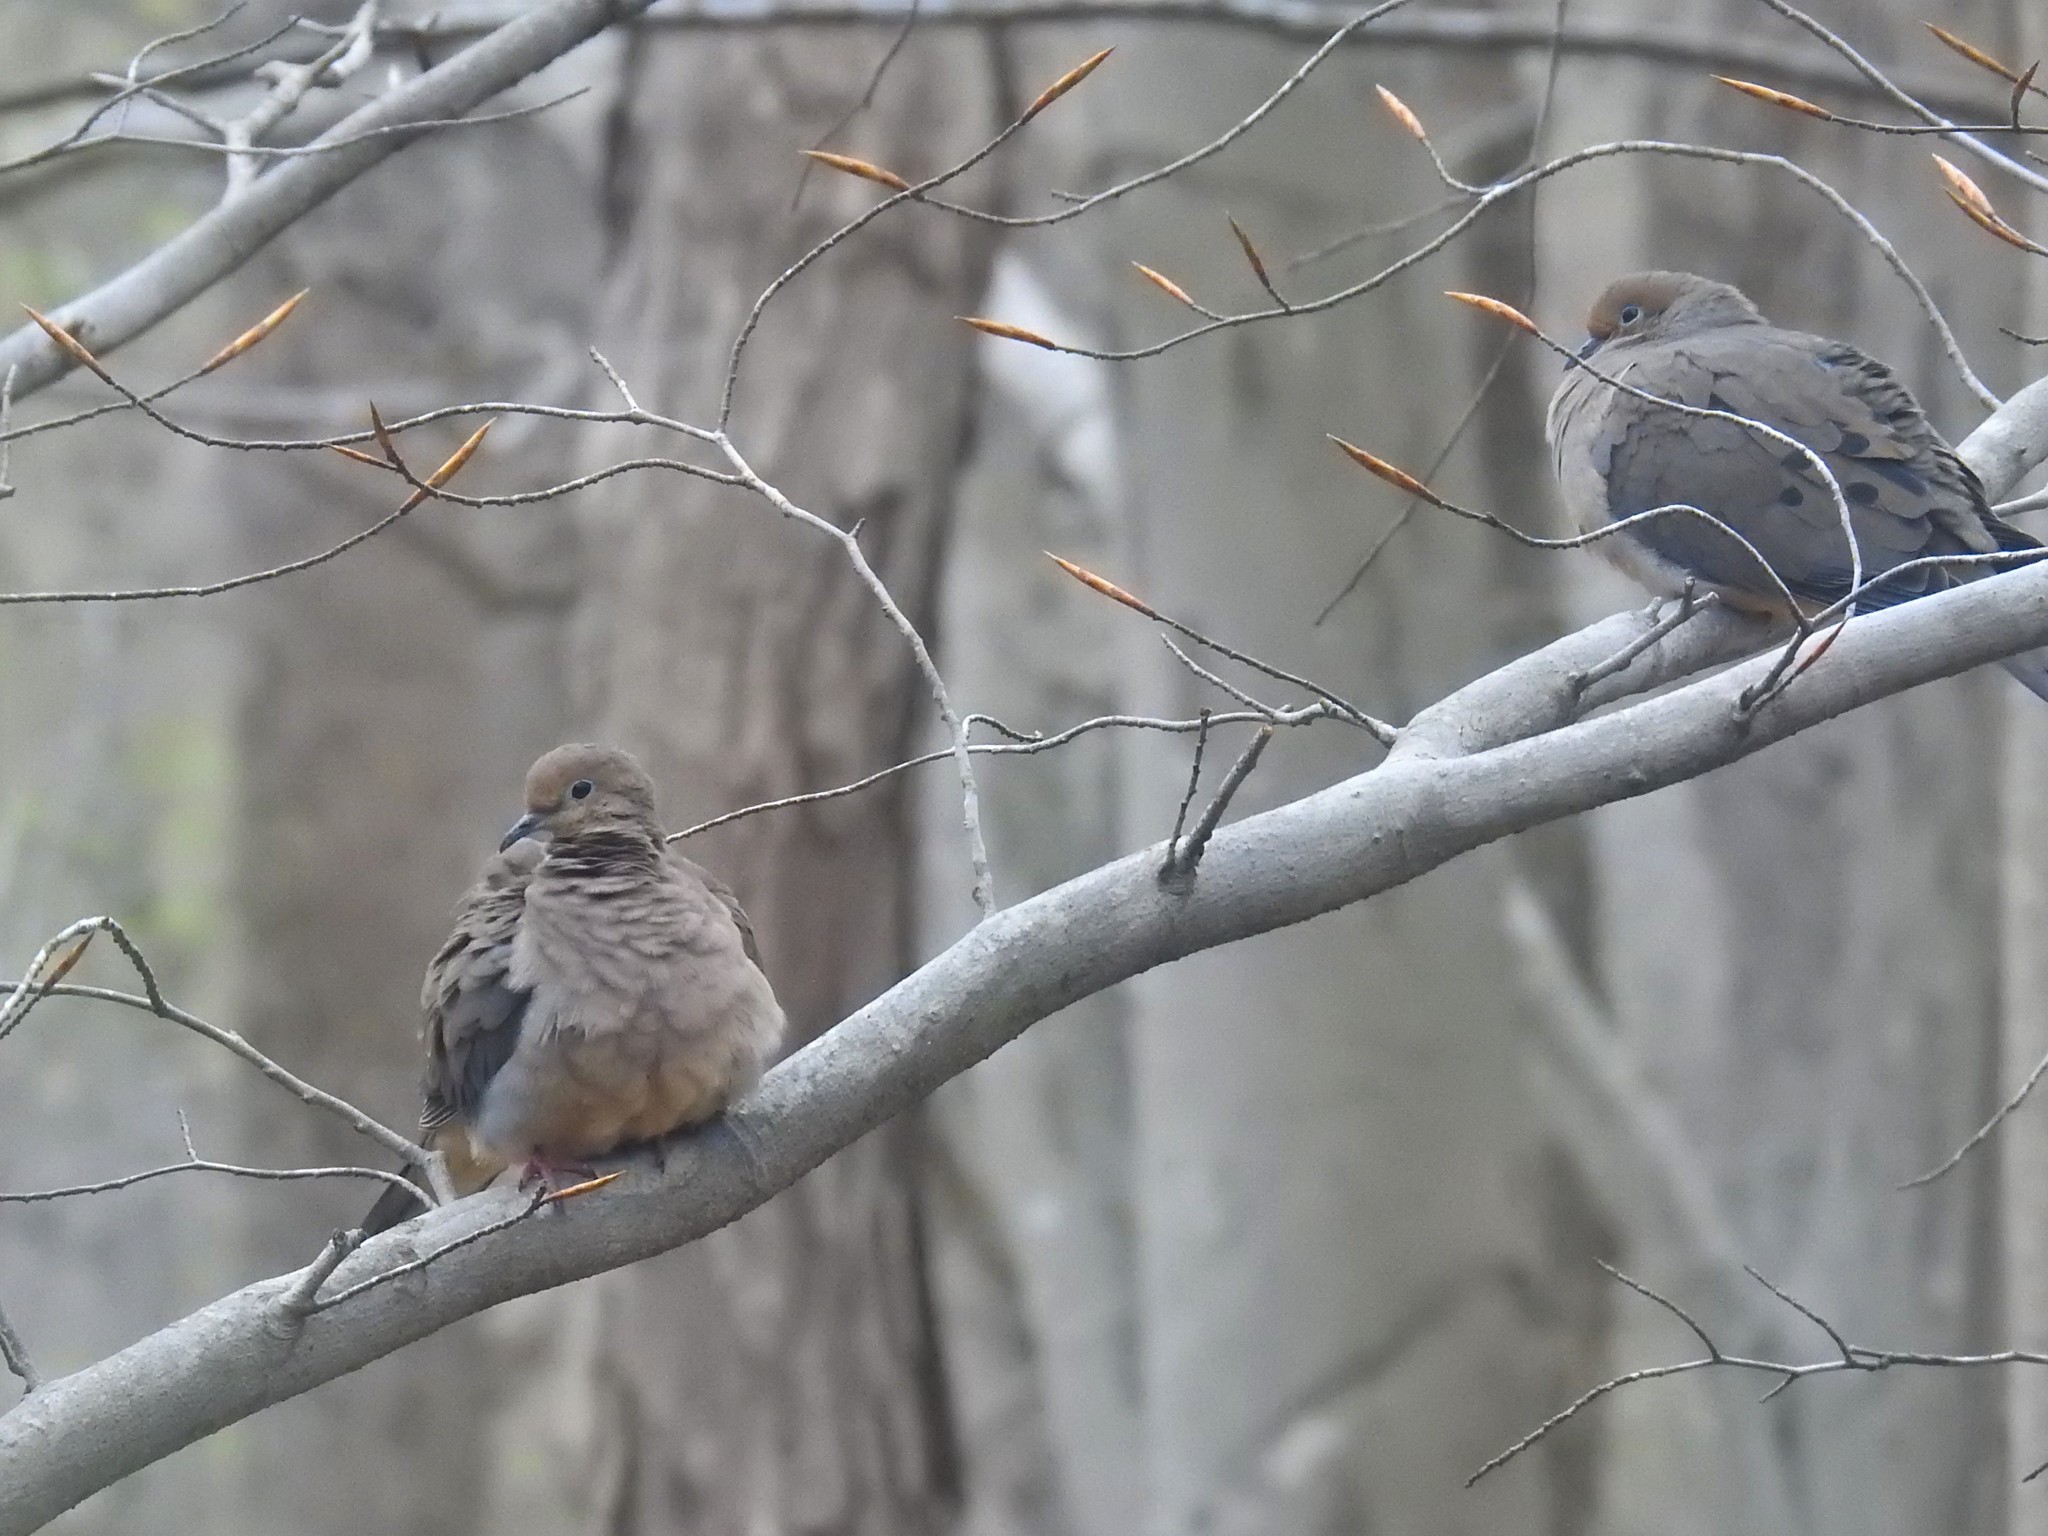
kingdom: Animalia
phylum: Chordata
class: Aves
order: Columbiformes
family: Columbidae
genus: Zenaida
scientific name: Zenaida macroura
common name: Mourning dove
